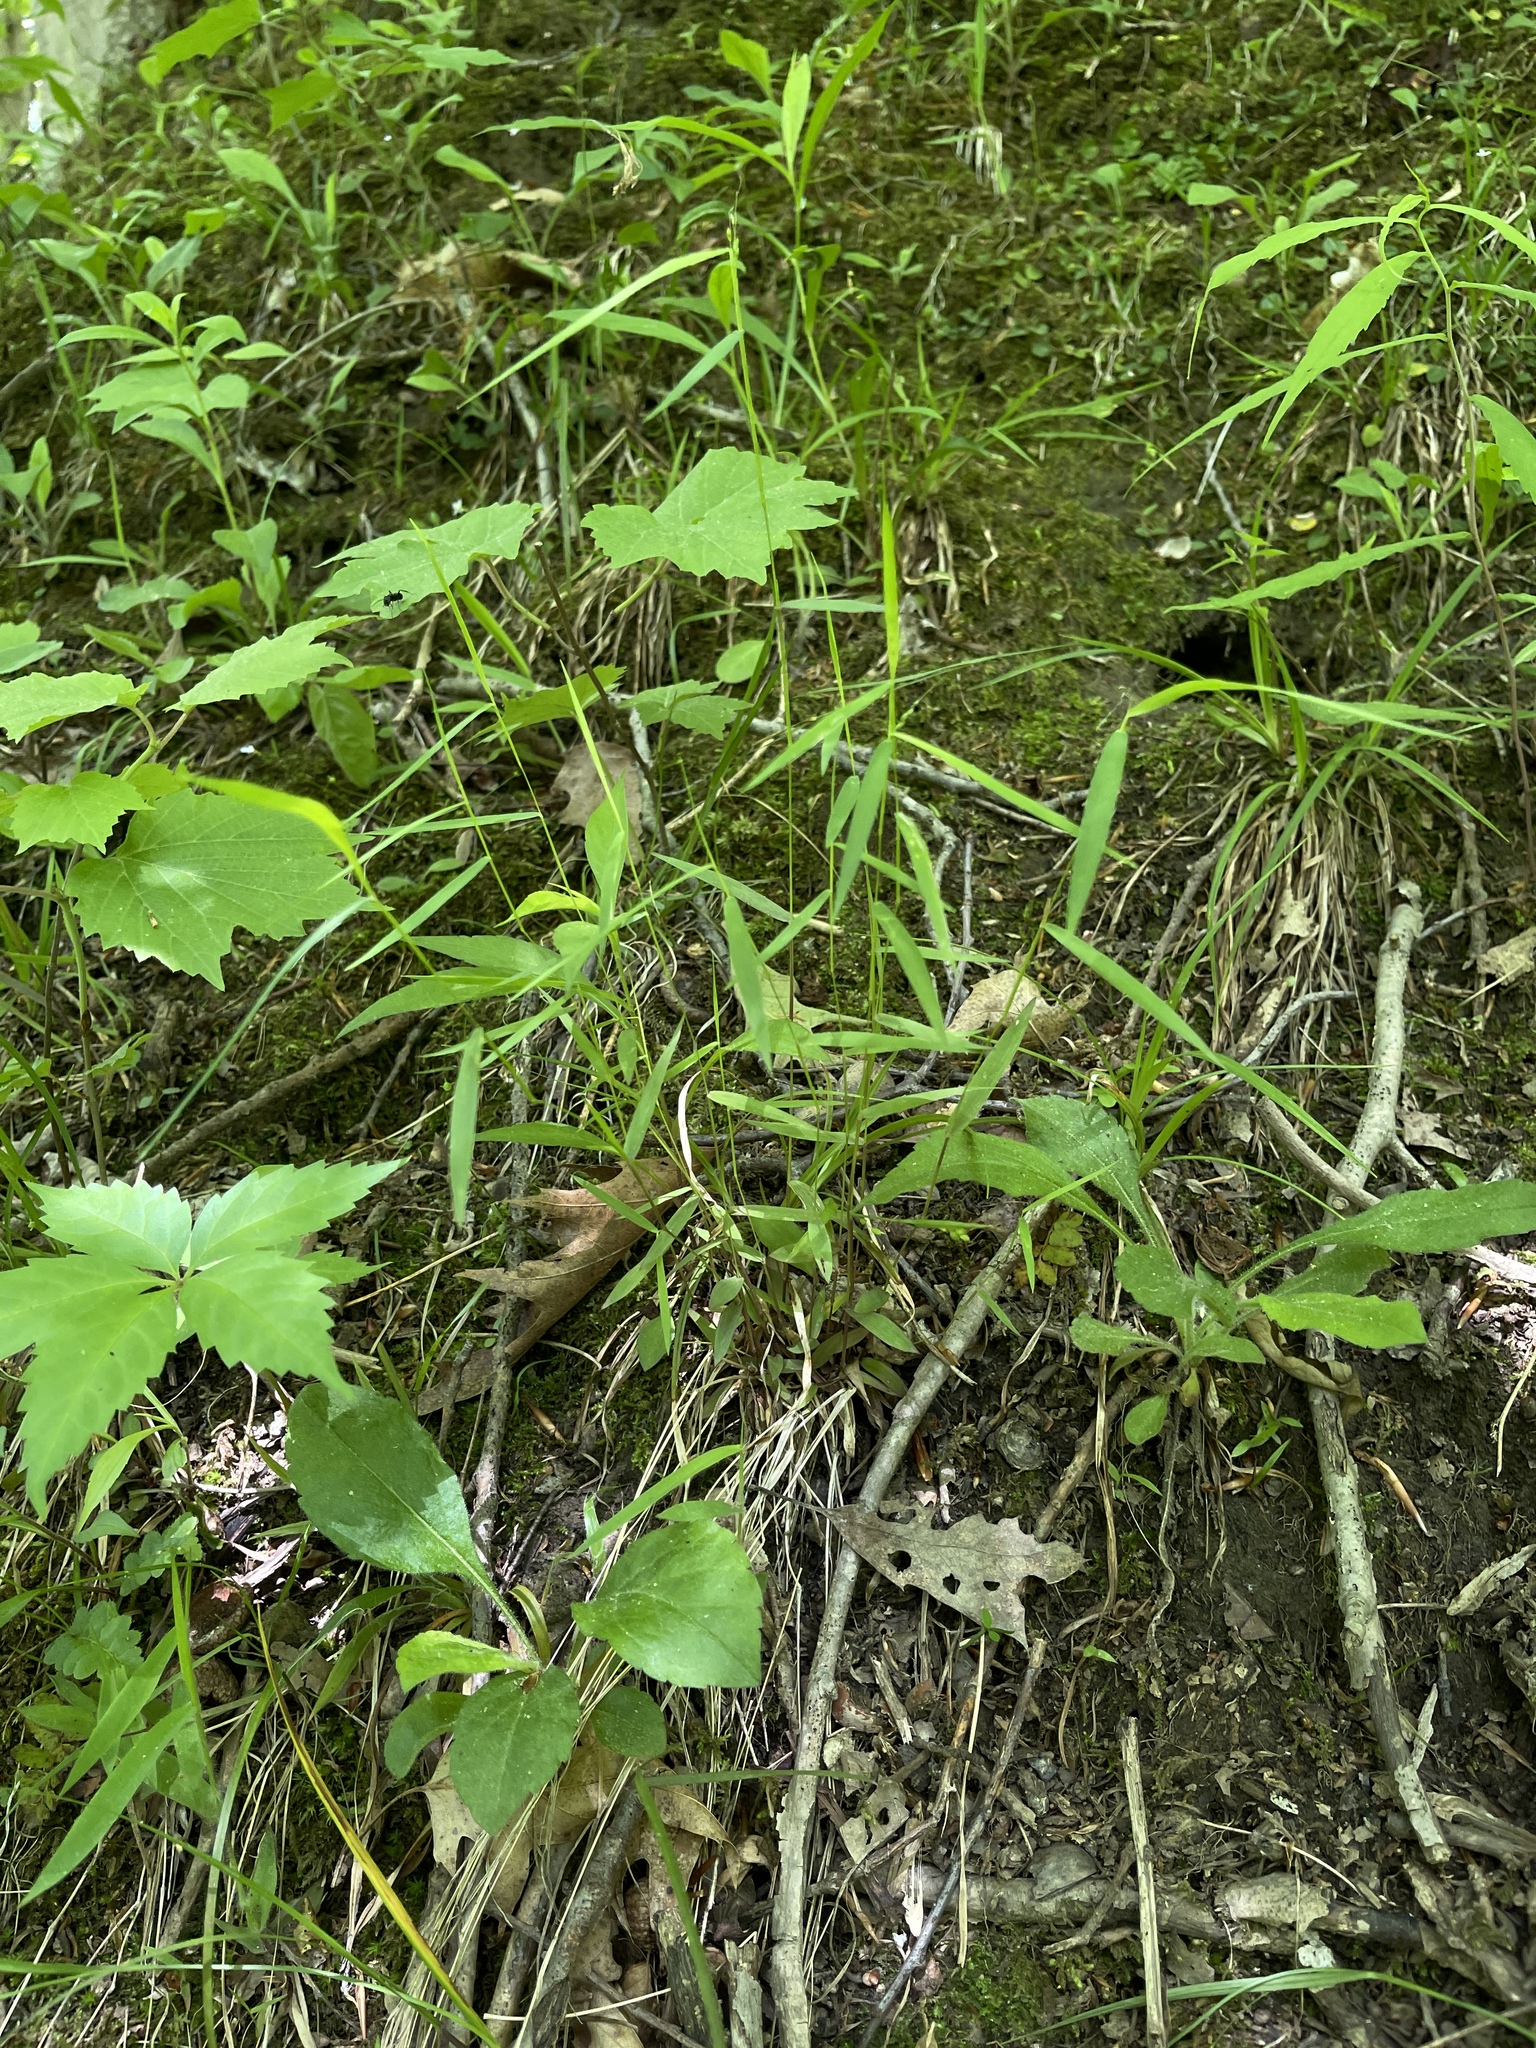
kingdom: Plantae
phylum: Tracheophyta
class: Liliopsida
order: Poales
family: Poaceae
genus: Dichanthelium
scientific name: Dichanthelium dichotomum
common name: Cypress panicgrass
